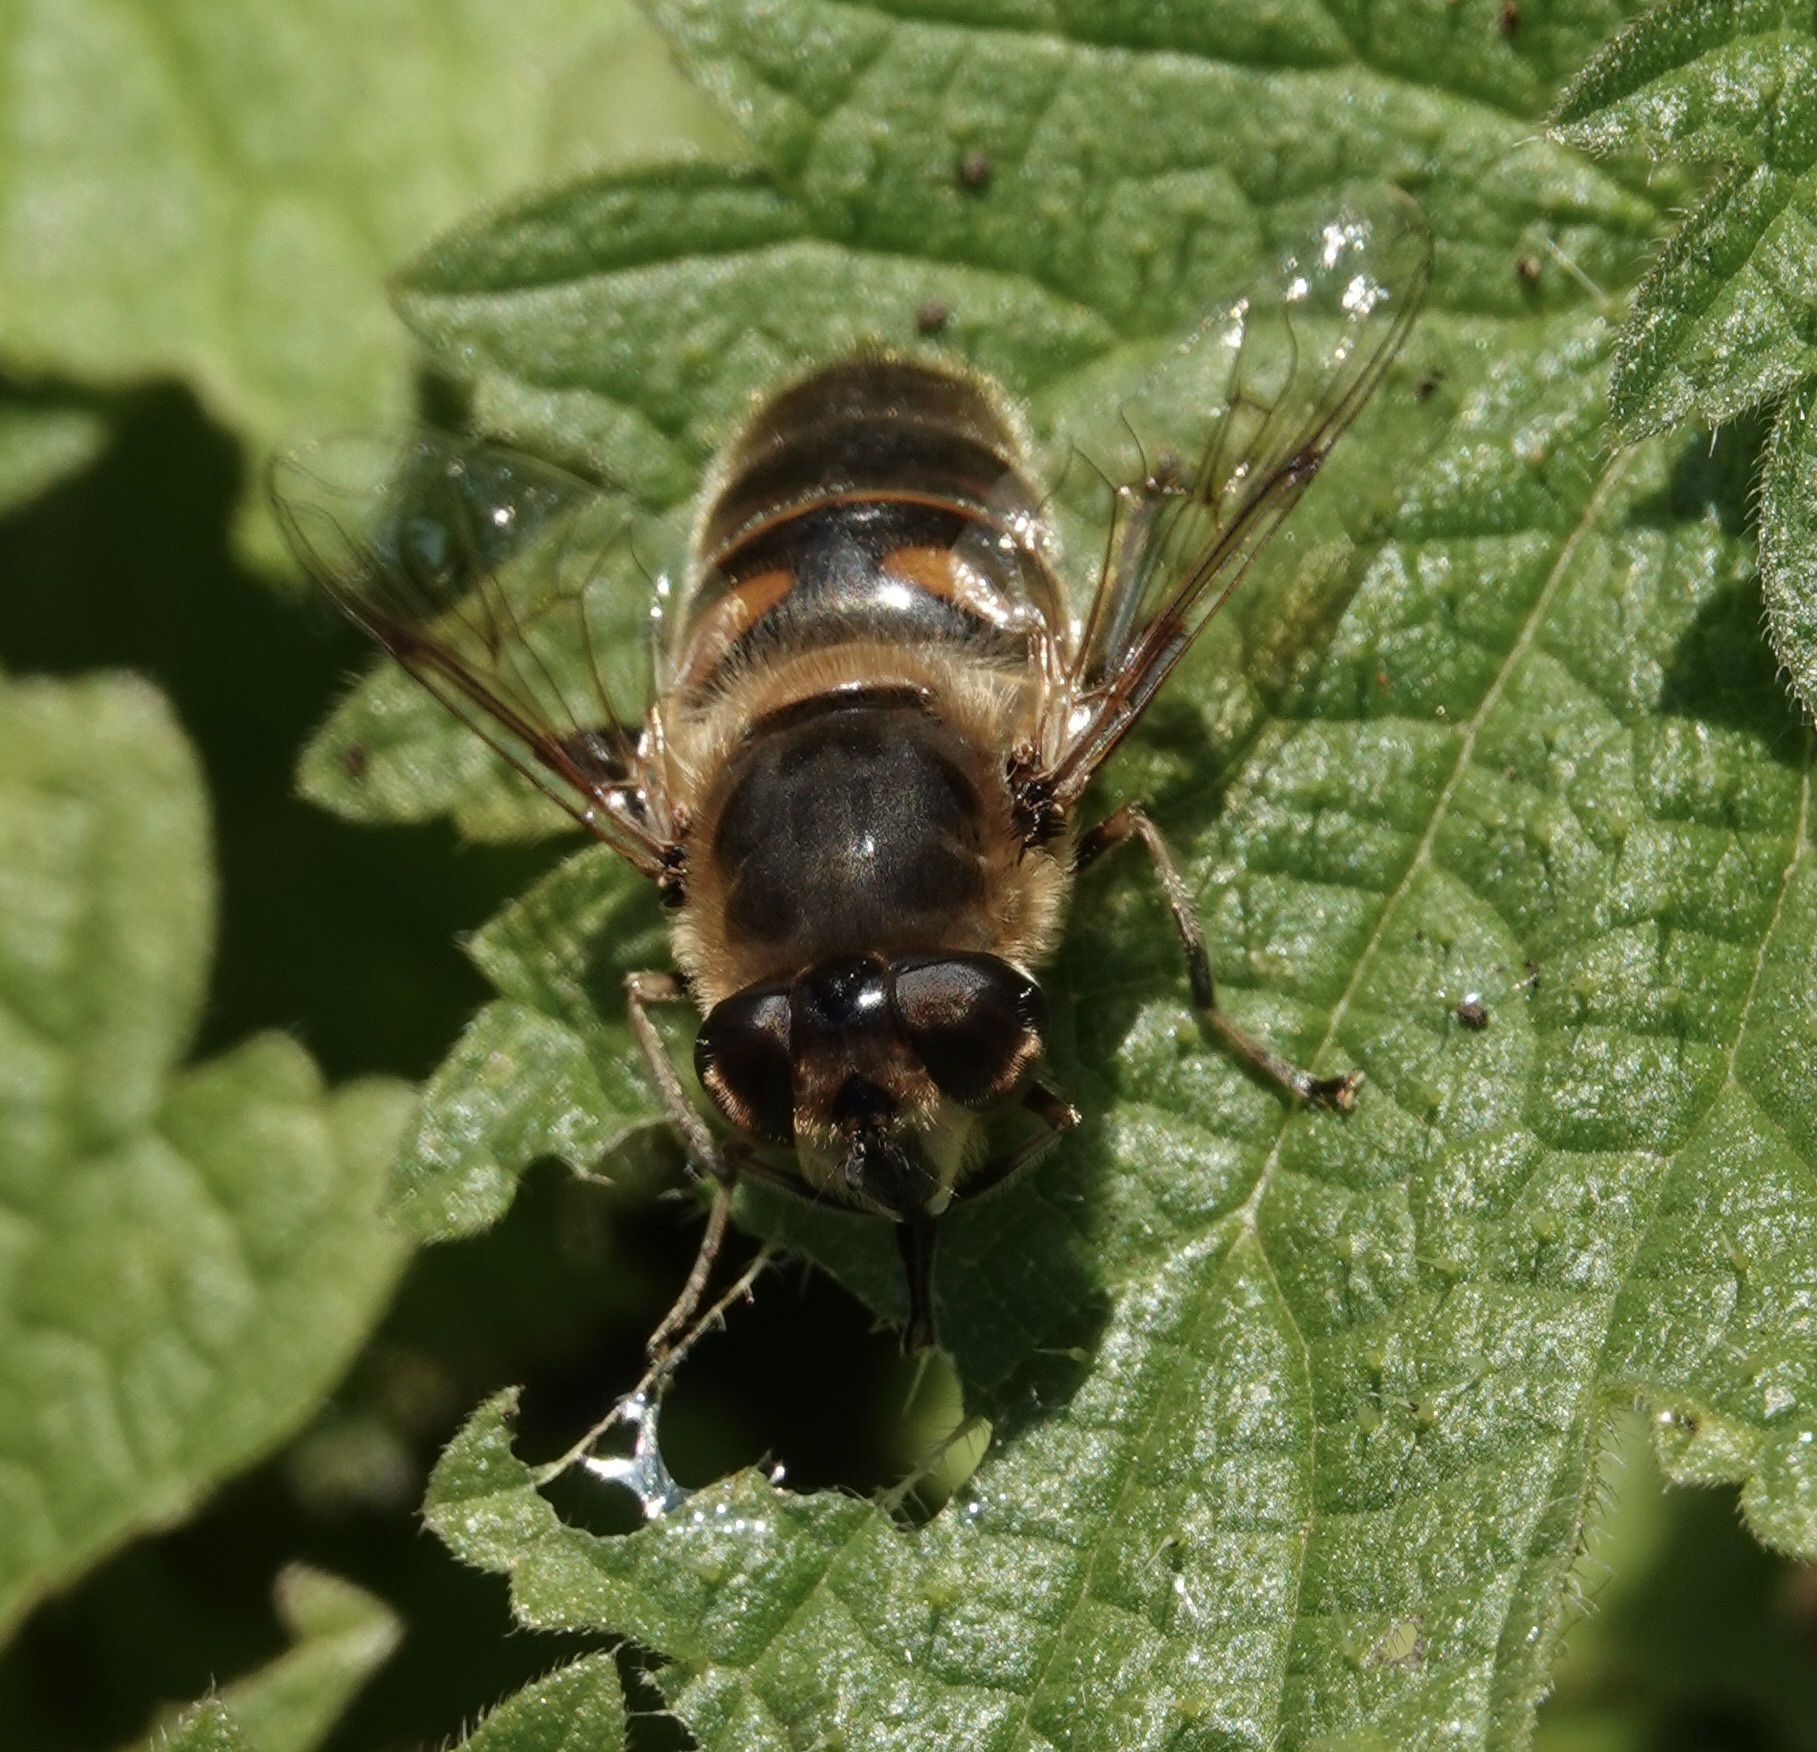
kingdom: Animalia
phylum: Arthropoda
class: Insecta
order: Diptera
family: Syrphidae
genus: Eristalis
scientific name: Eristalis tenax
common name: Drone fly
